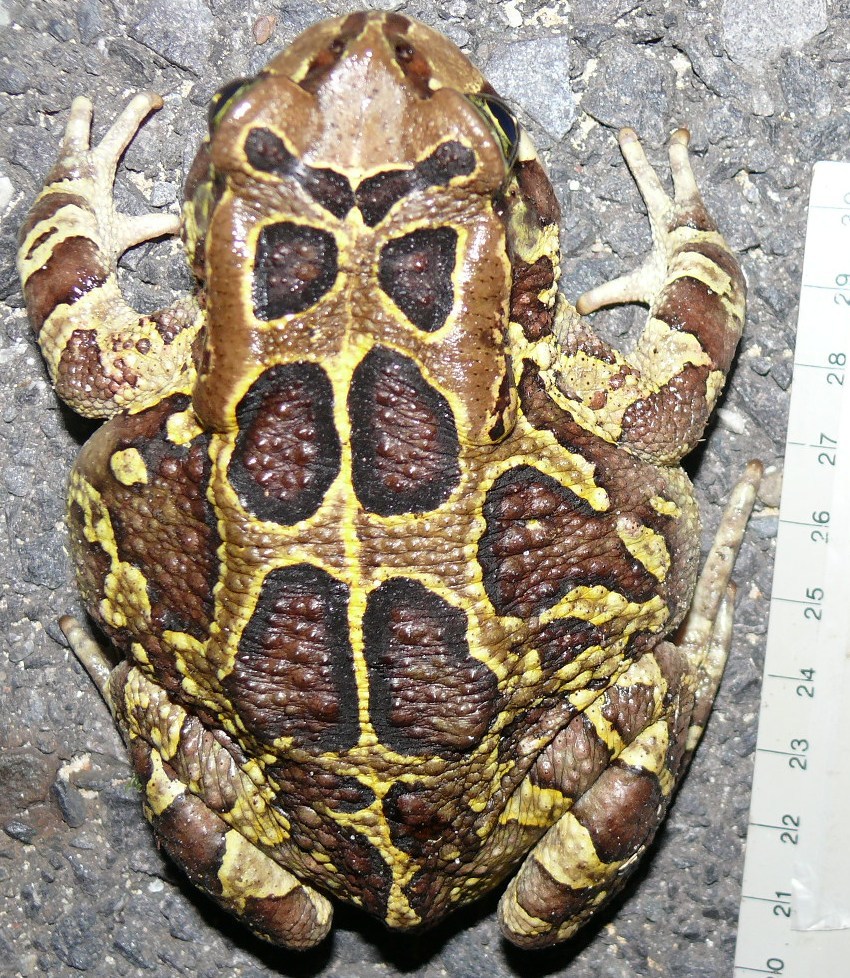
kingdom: Animalia
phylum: Chordata
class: Amphibia
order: Anura
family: Bufonidae
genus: Sclerophrys
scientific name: Sclerophrys pantherina
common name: Panther toad
